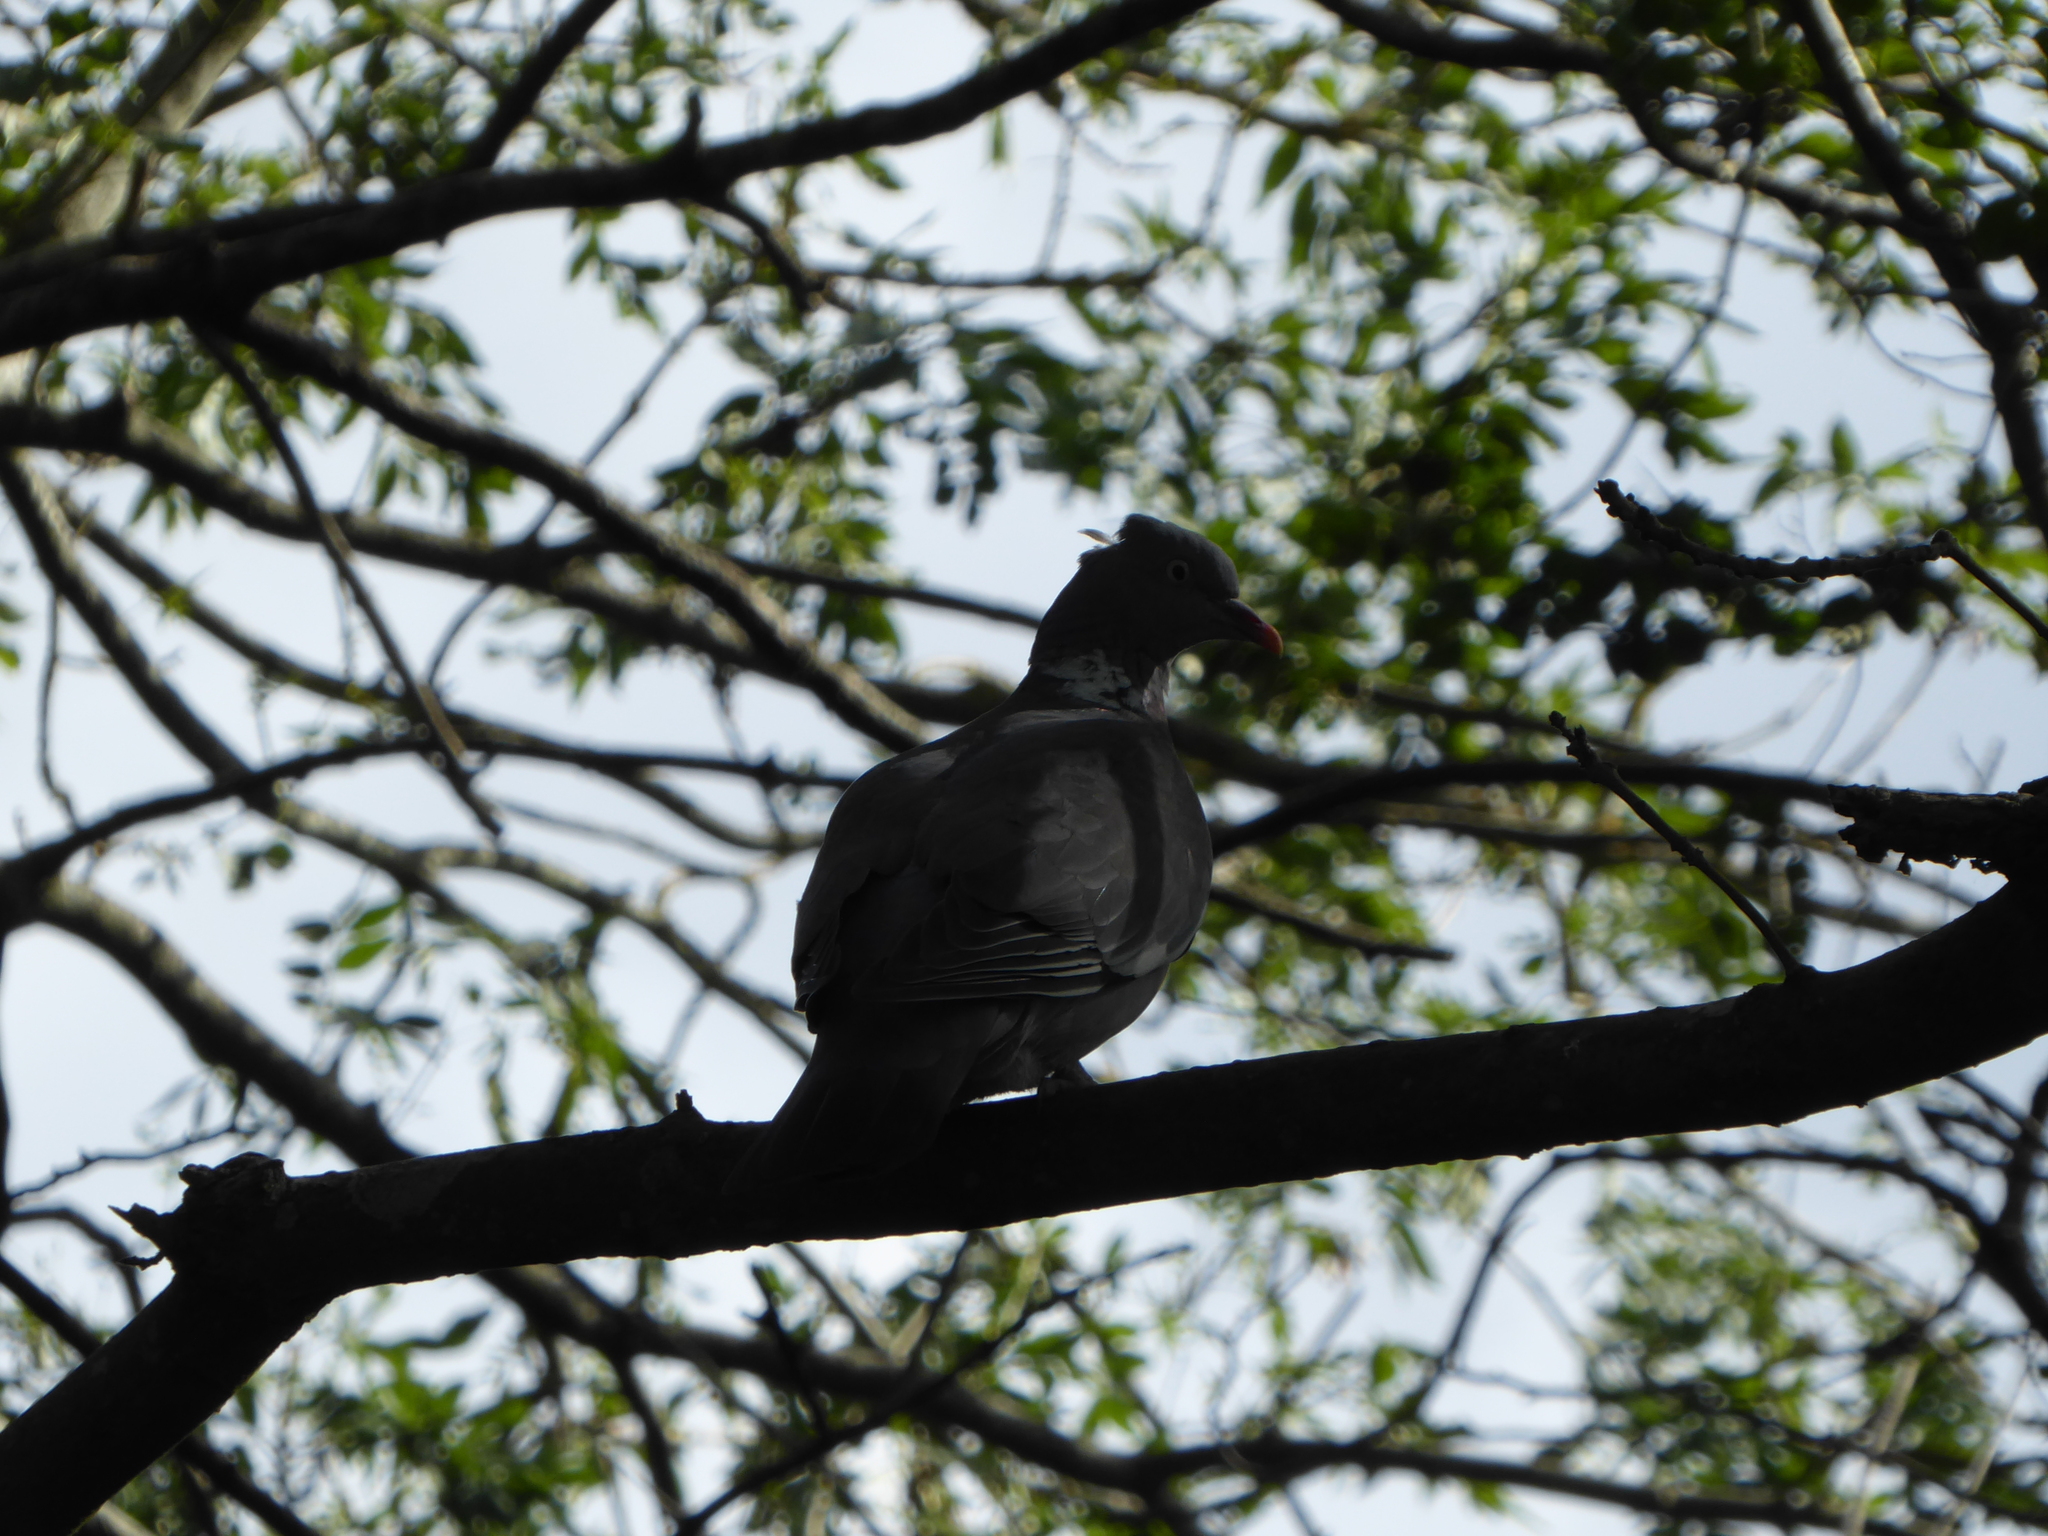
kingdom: Animalia
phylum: Chordata
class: Aves
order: Columbiformes
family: Columbidae
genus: Columba
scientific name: Columba palumbus
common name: Common wood pigeon
